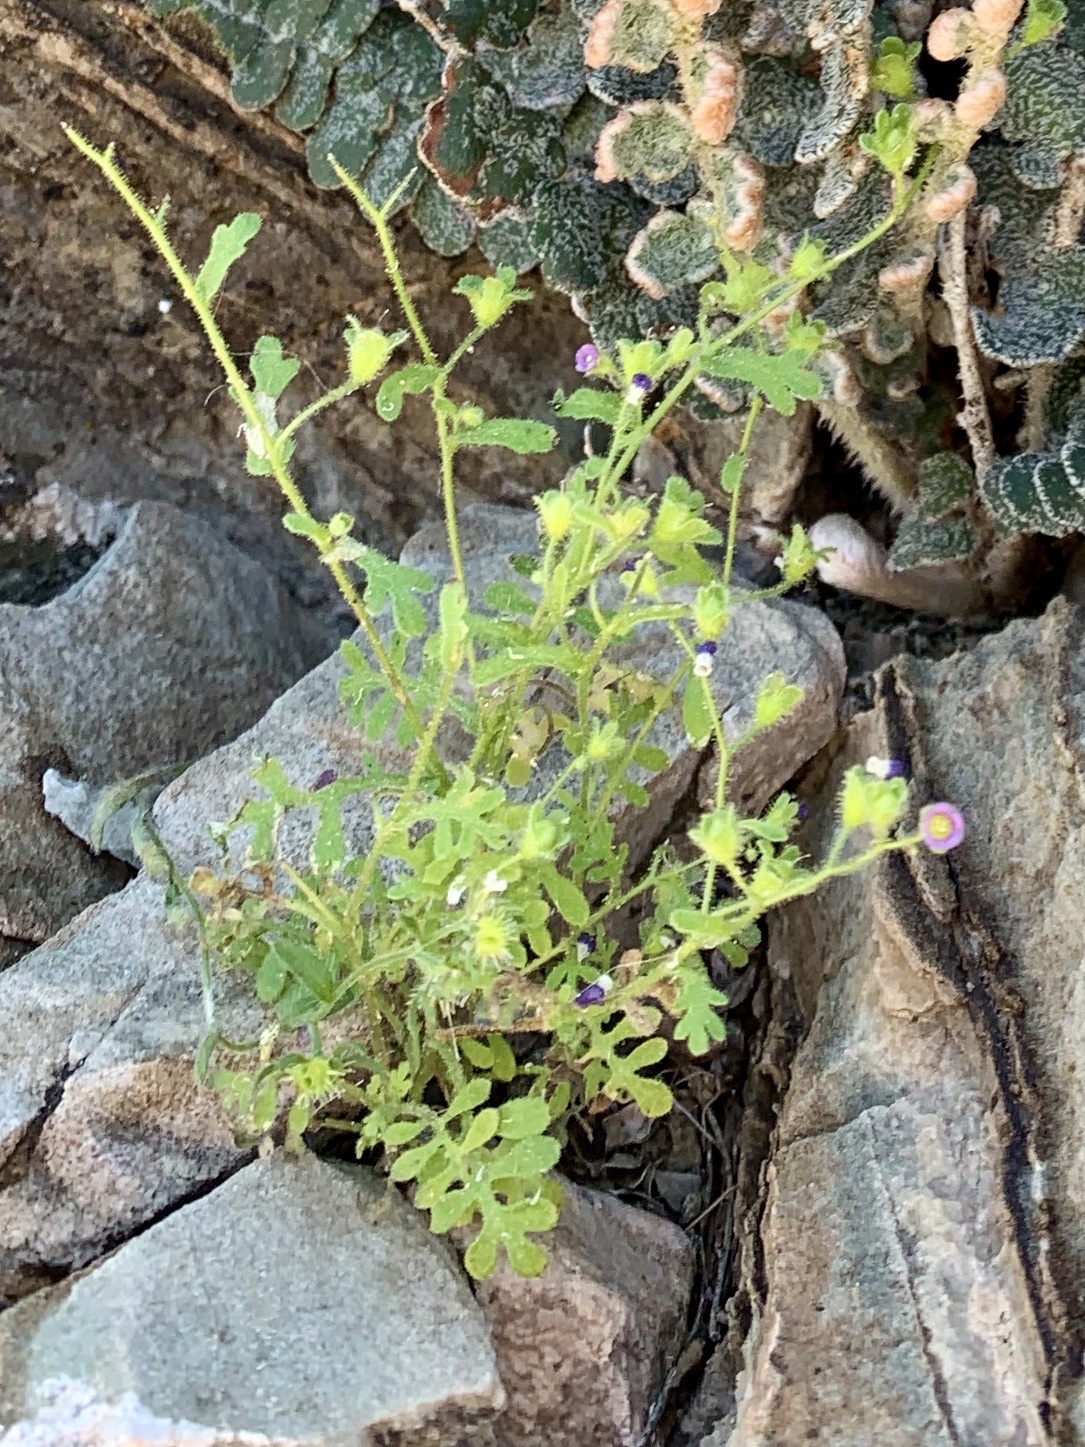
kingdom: Plantae
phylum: Tracheophyta
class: Magnoliopsida
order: Boraginales
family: Hydrophyllaceae
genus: Eucrypta
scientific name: Eucrypta micrantha
